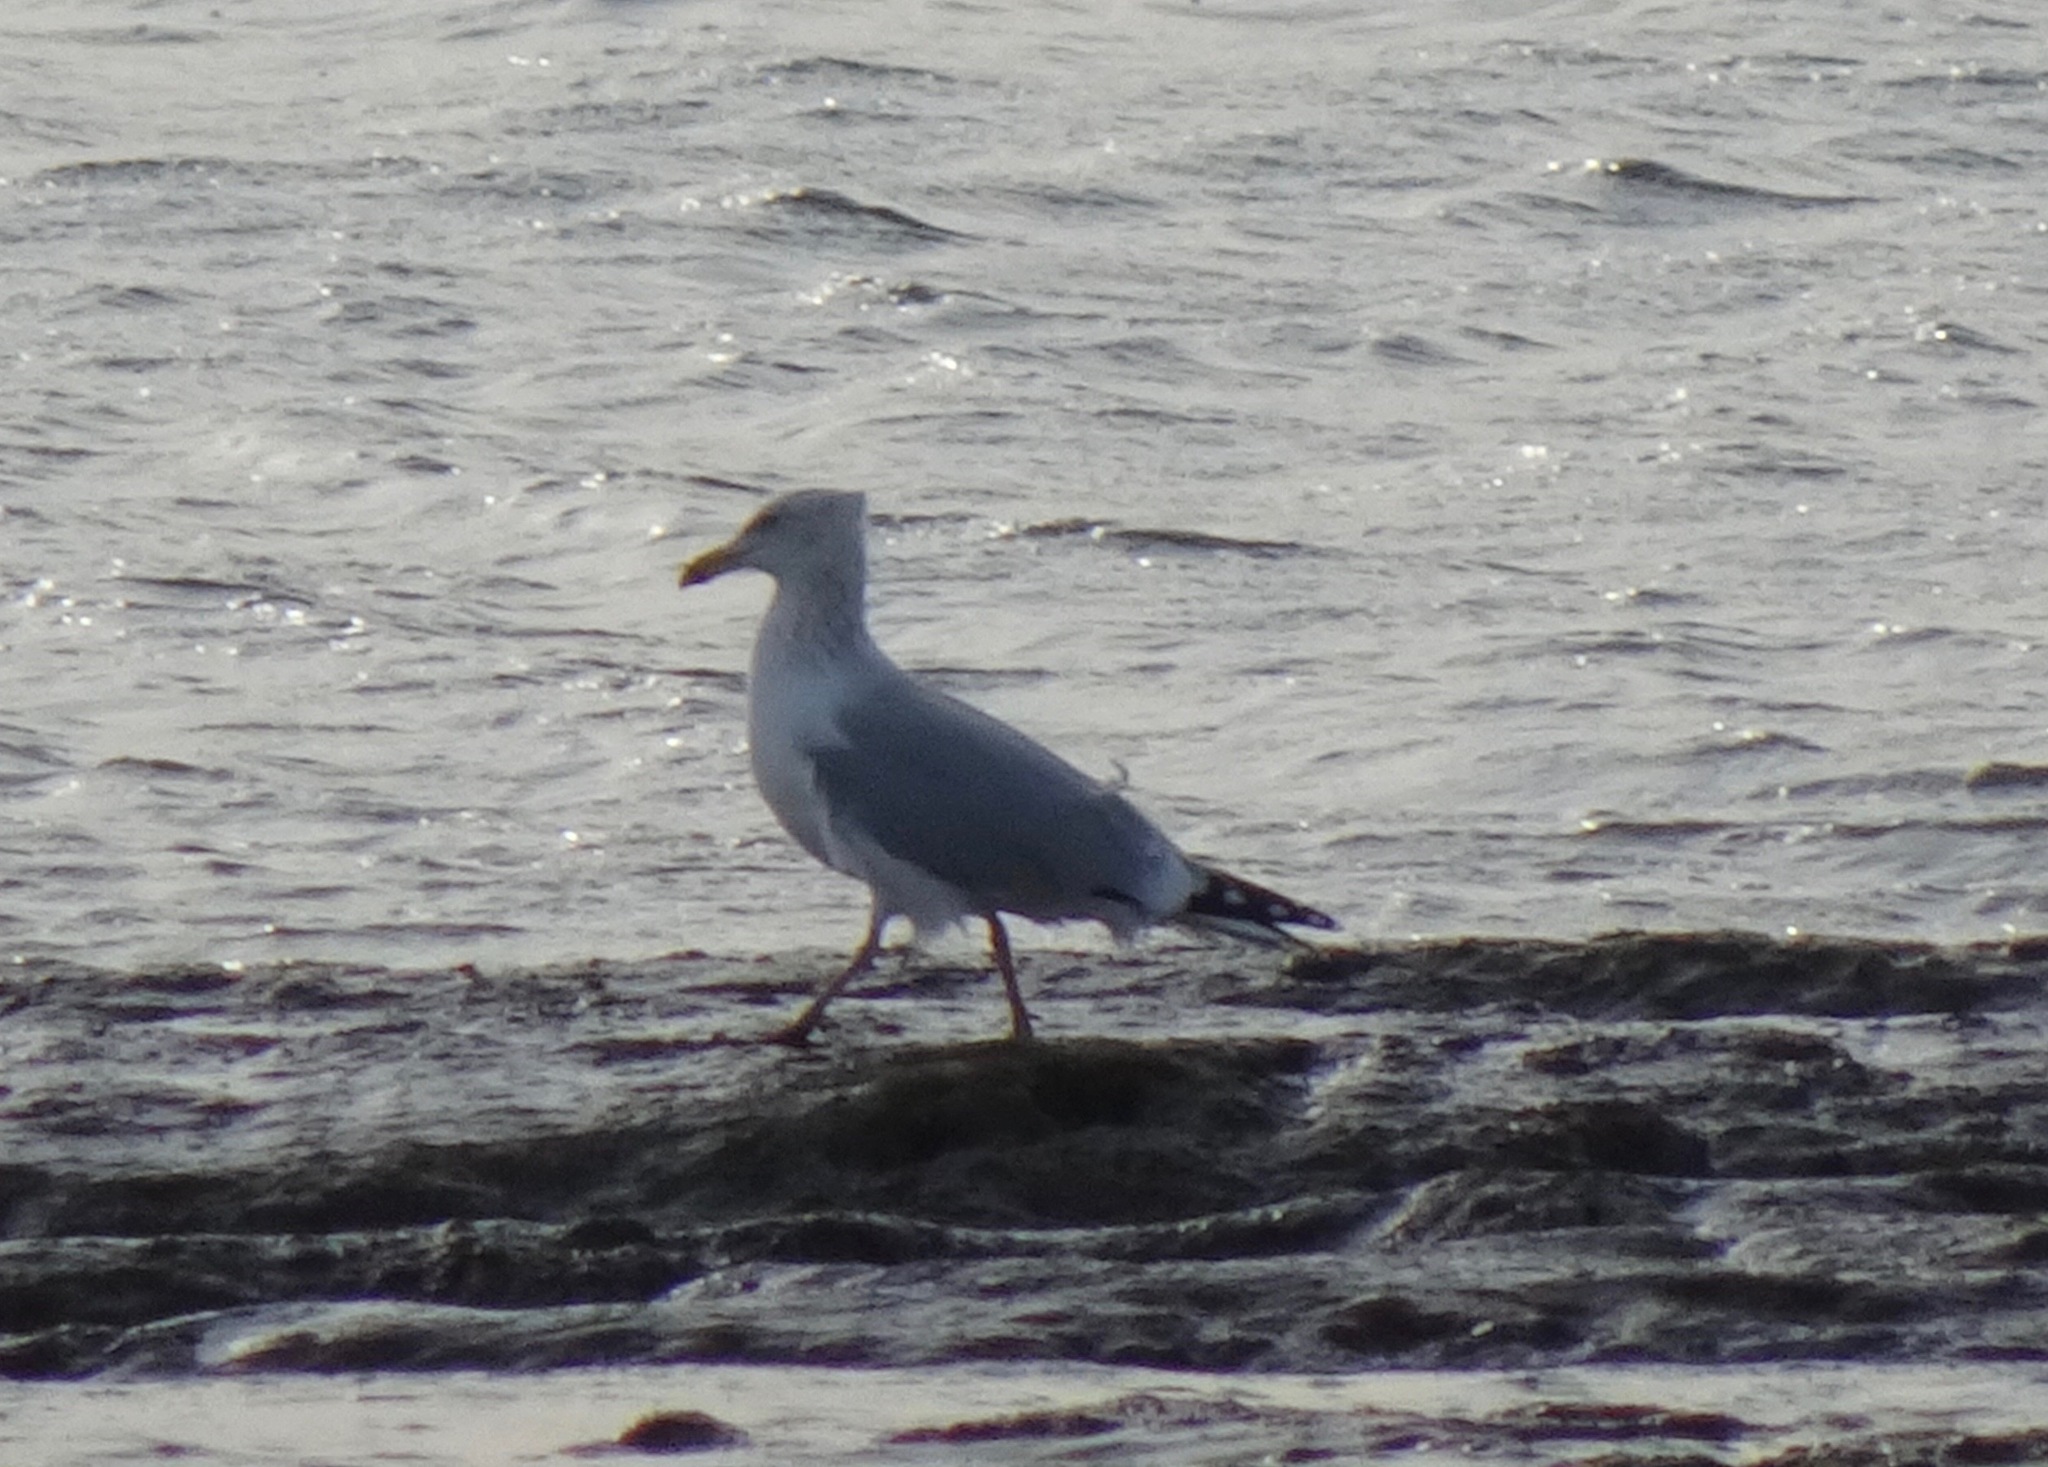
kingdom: Animalia
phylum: Chordata
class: Aves
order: Charadriiformes
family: Laridae
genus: Larus
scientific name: Larus argentatus
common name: Herring gull
